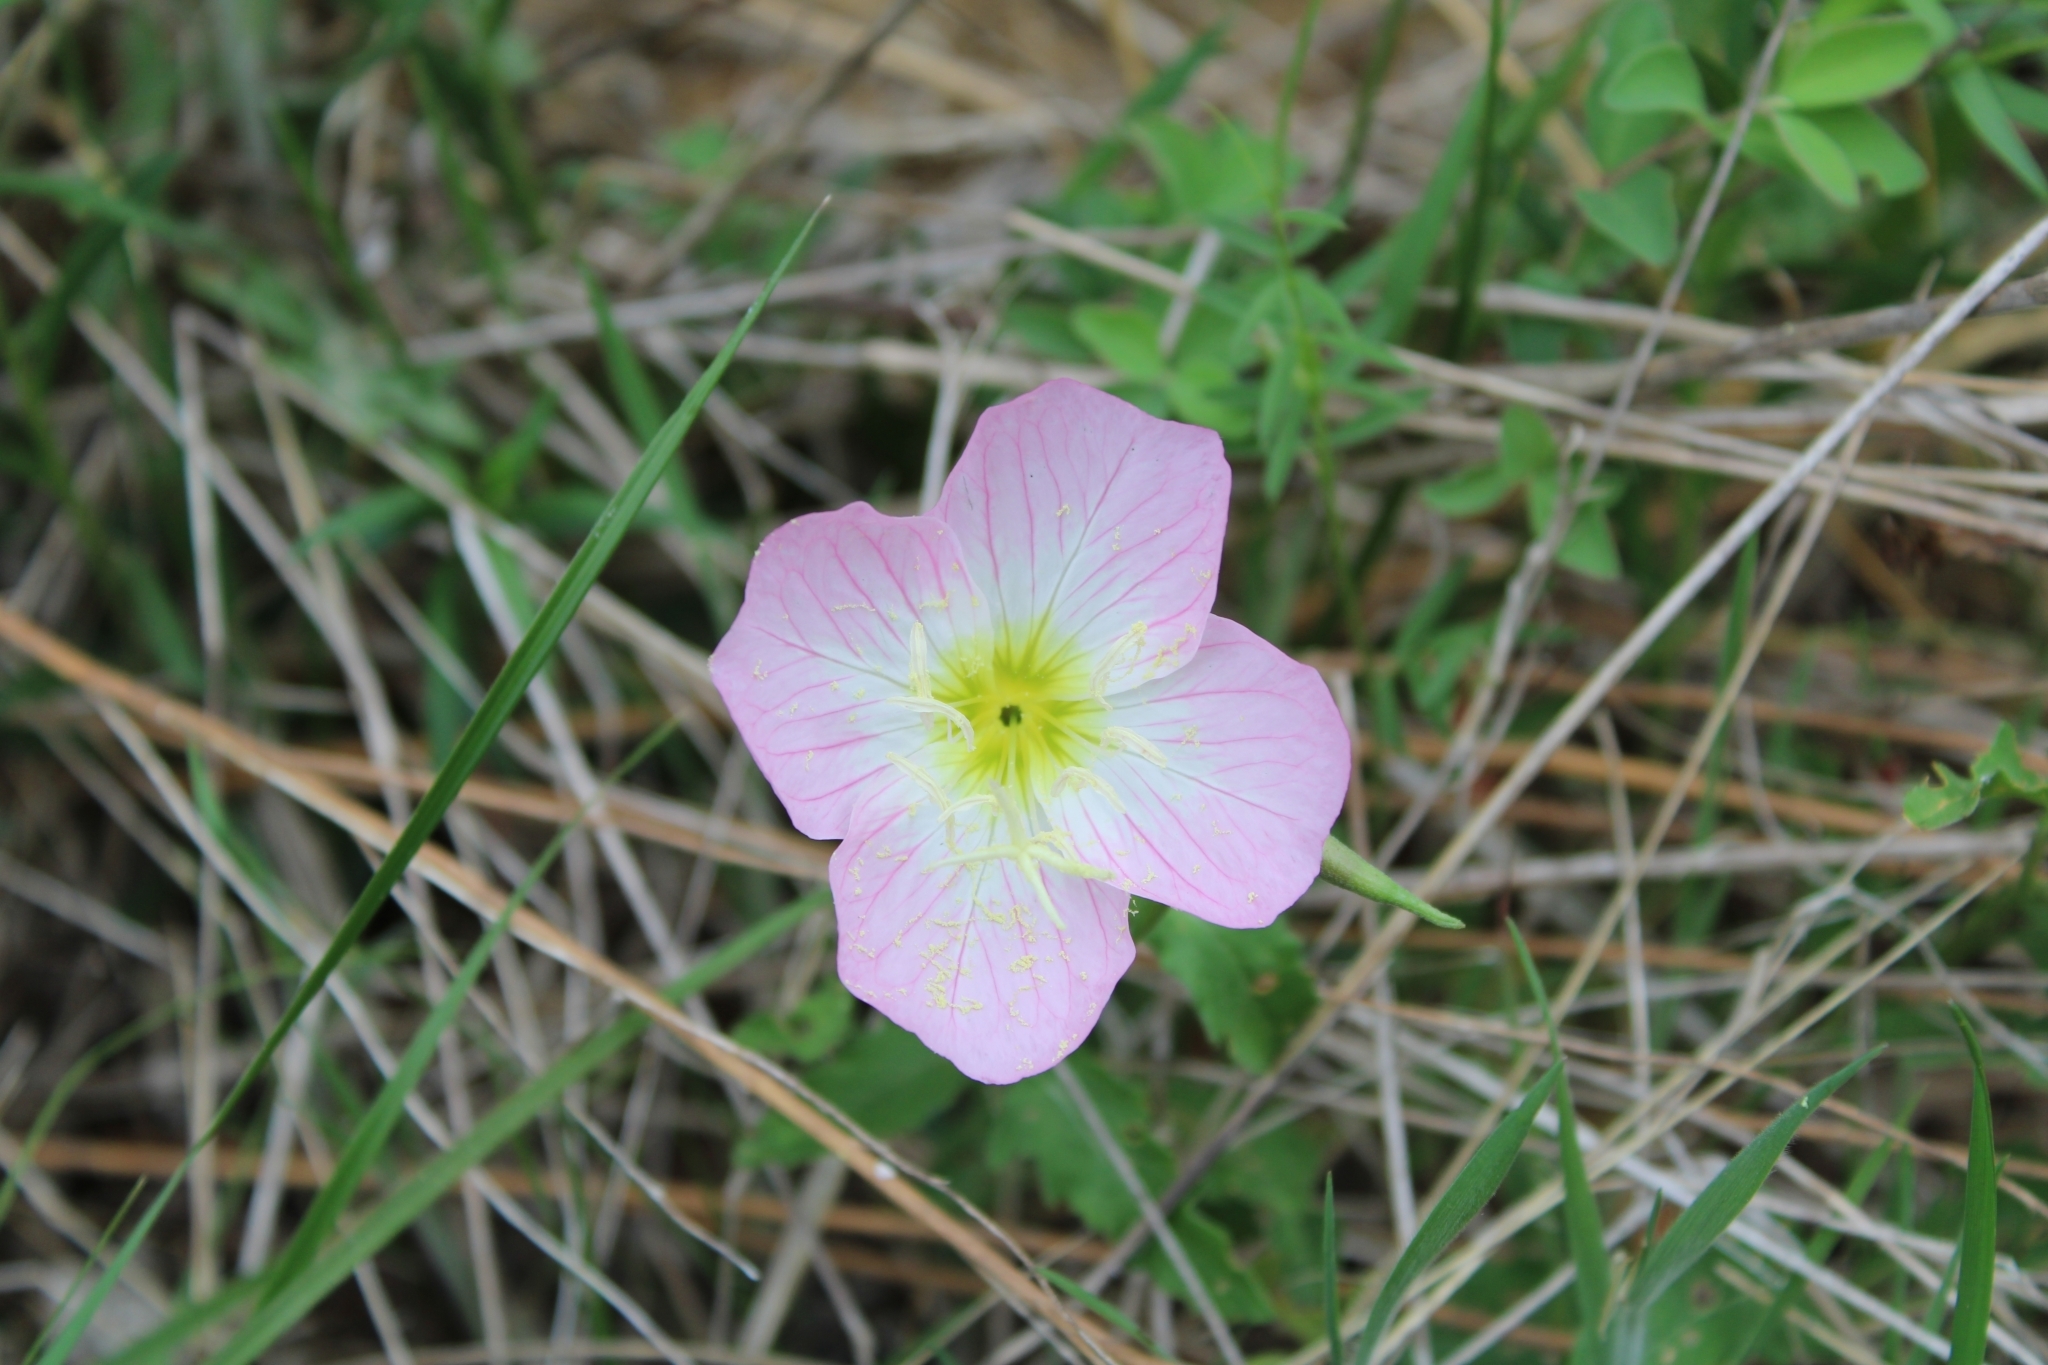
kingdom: Plantae
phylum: Tracheophyta
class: Magnoliopsida
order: Myrtales
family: Onagraceae
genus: Oenothera
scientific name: Oenothera speciosa
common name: White evening-primrose
